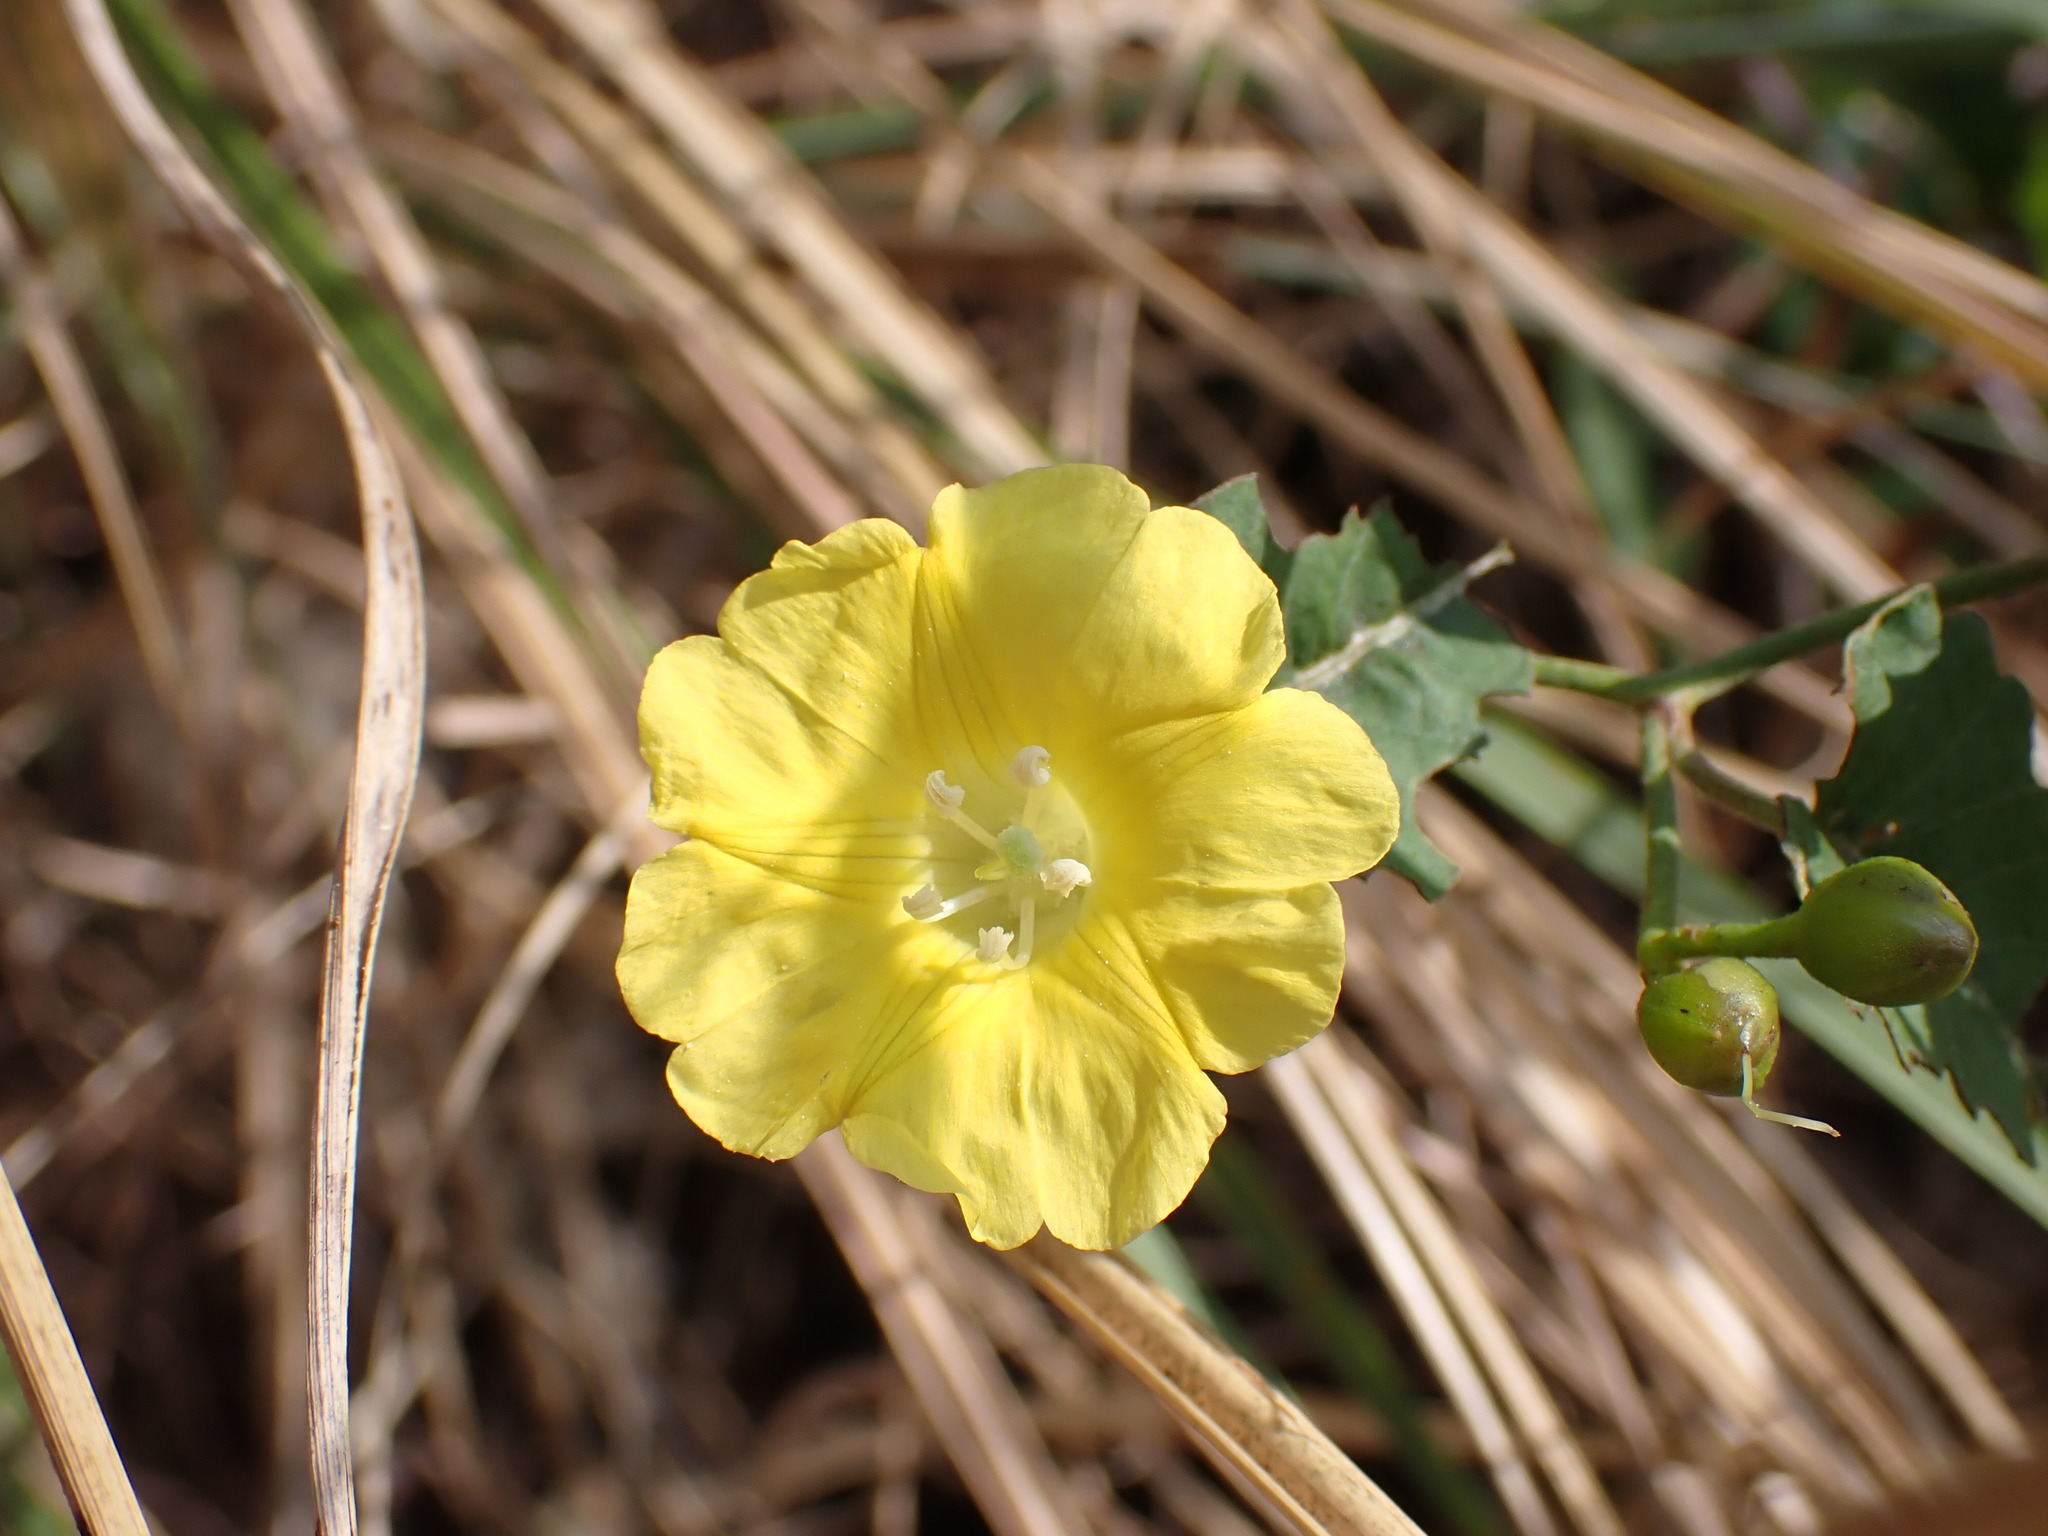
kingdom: Plantae
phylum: Tracheophyta
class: Magnoliopsida
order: Solanales
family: Convolvulaceae
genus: Merremia
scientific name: Merremia hederacea
